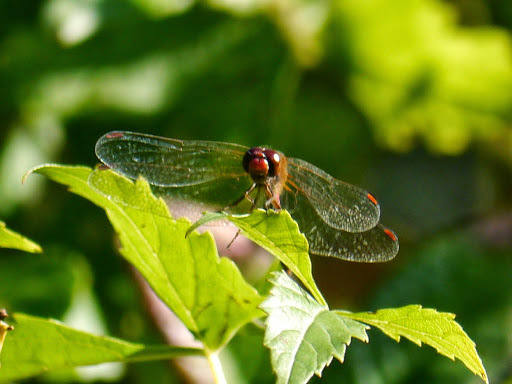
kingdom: Animalia
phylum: Arthropoda
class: Insecta
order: Odonata
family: Libellulidae
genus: Sympetrum
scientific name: Sympetrum vicinum
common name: Autumn meadowhawk
